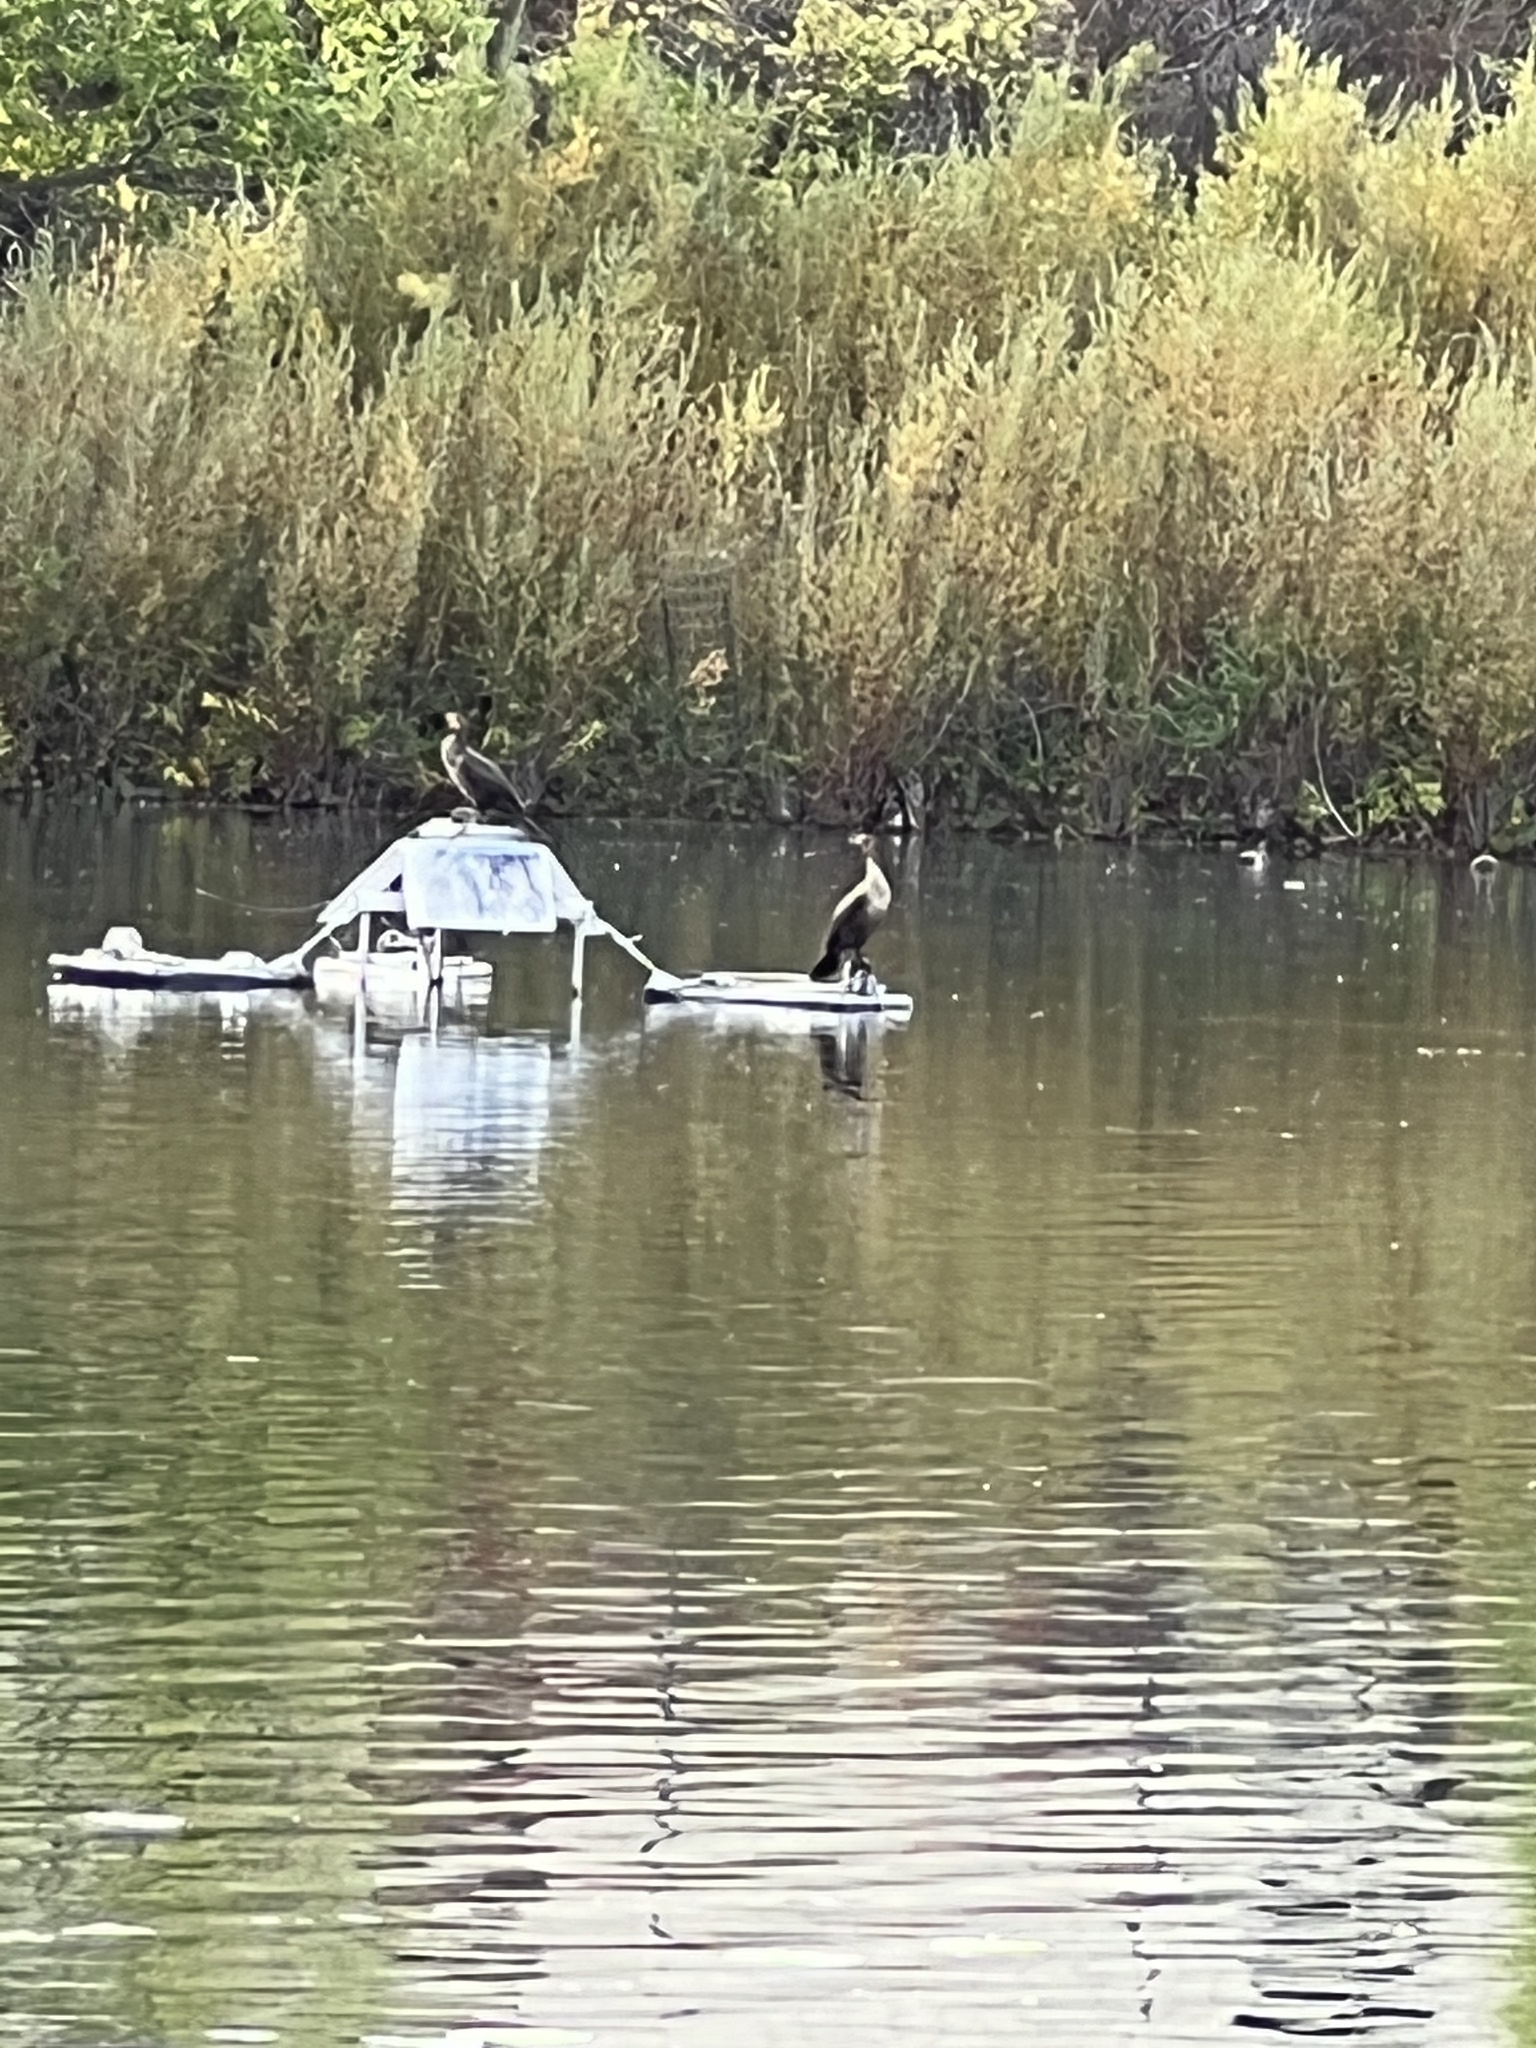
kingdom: Animalia
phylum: Chordata
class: Aves
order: Suliformes
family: Phalacrocoracidae
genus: Phalacrocorax
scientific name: Phalacrocorax auritus
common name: Double-crested cormorant
